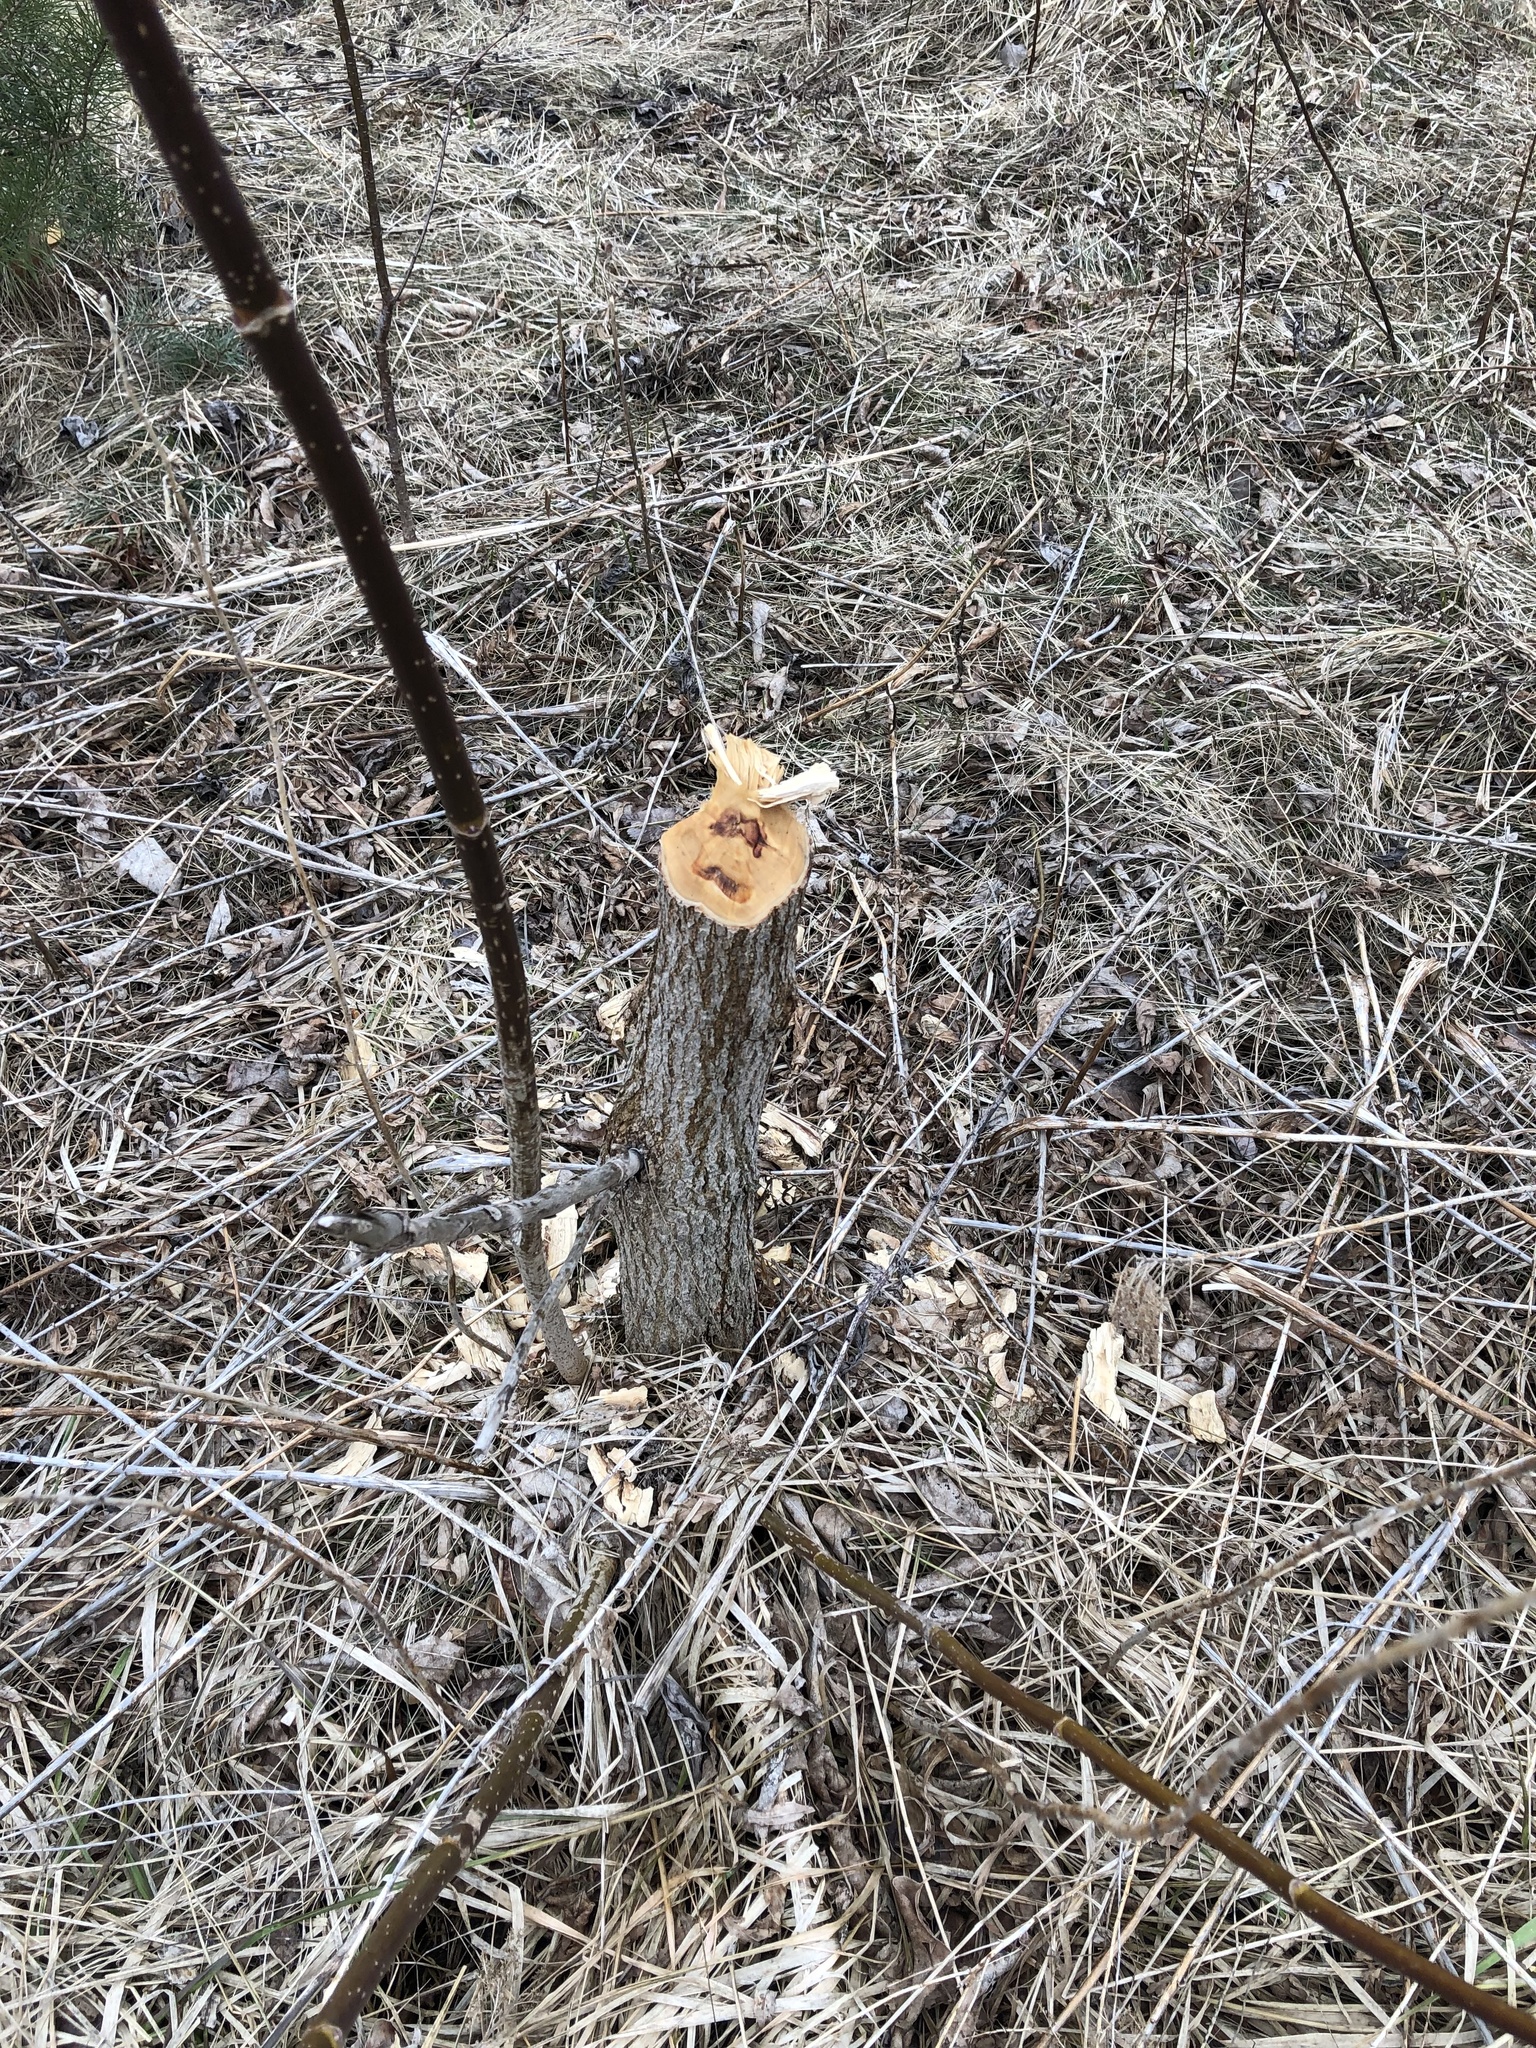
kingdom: Animalia
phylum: Chordata
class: Mammalia
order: Rodentia
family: Castoridae
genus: Castor
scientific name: Castor canadensis
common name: American beaver
